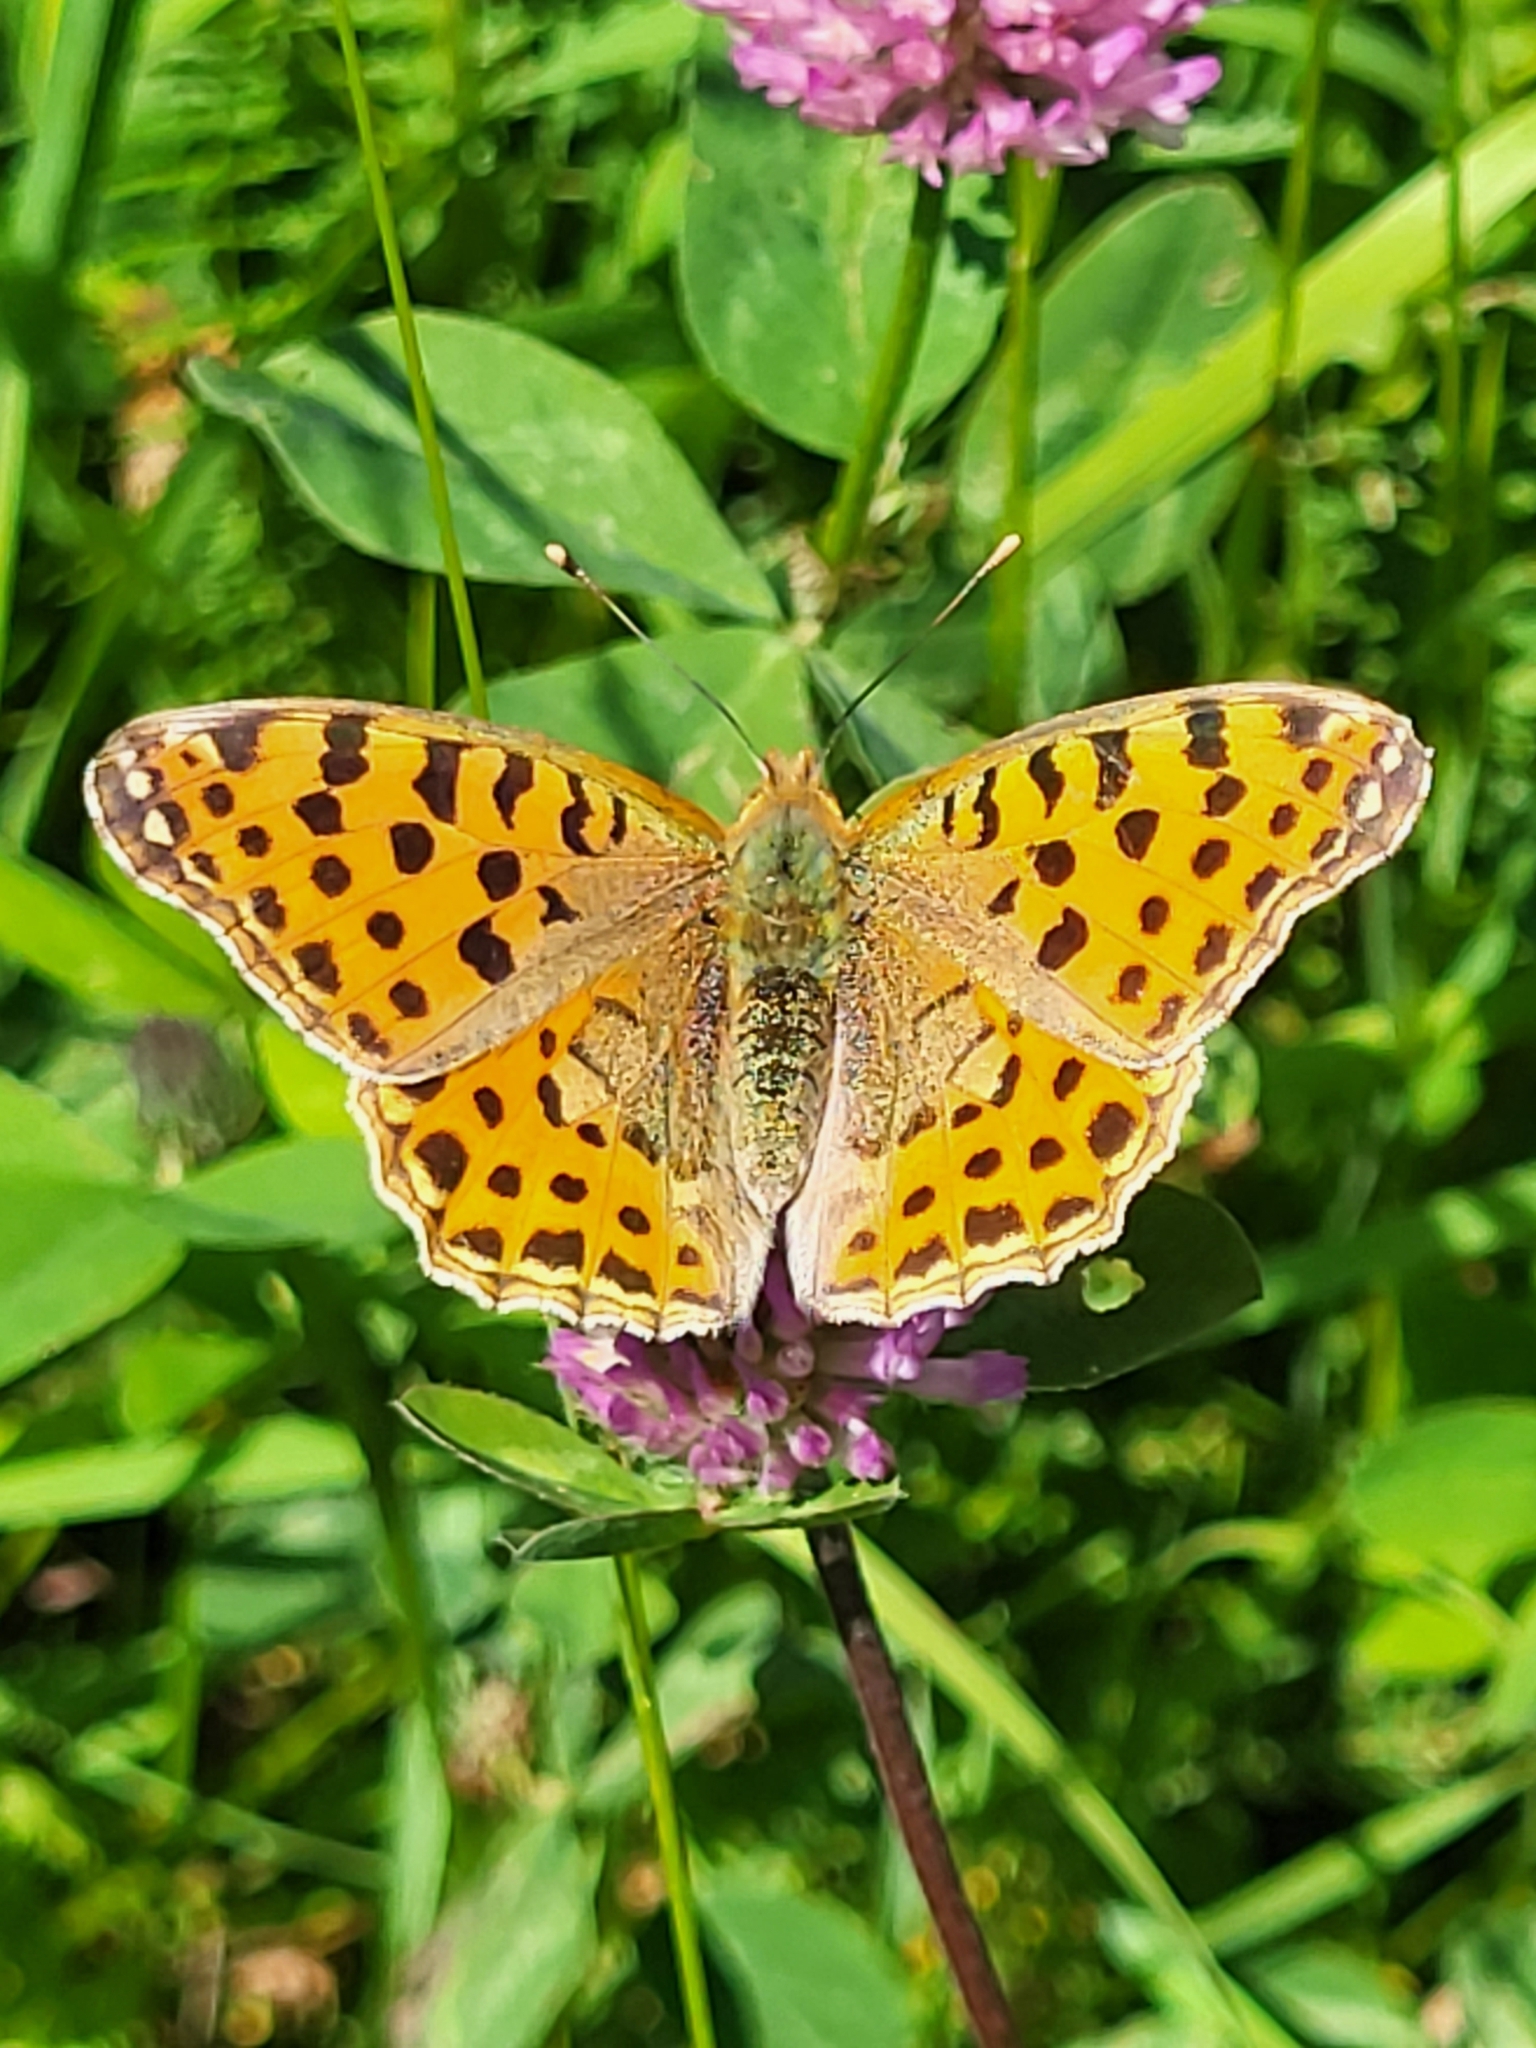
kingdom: Animalia
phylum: Arthropoda
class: Insecta
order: Lepidoptera
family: Nymphalidae
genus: Issoria
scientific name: Issoria lathonia
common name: Queen of spain fritillary
